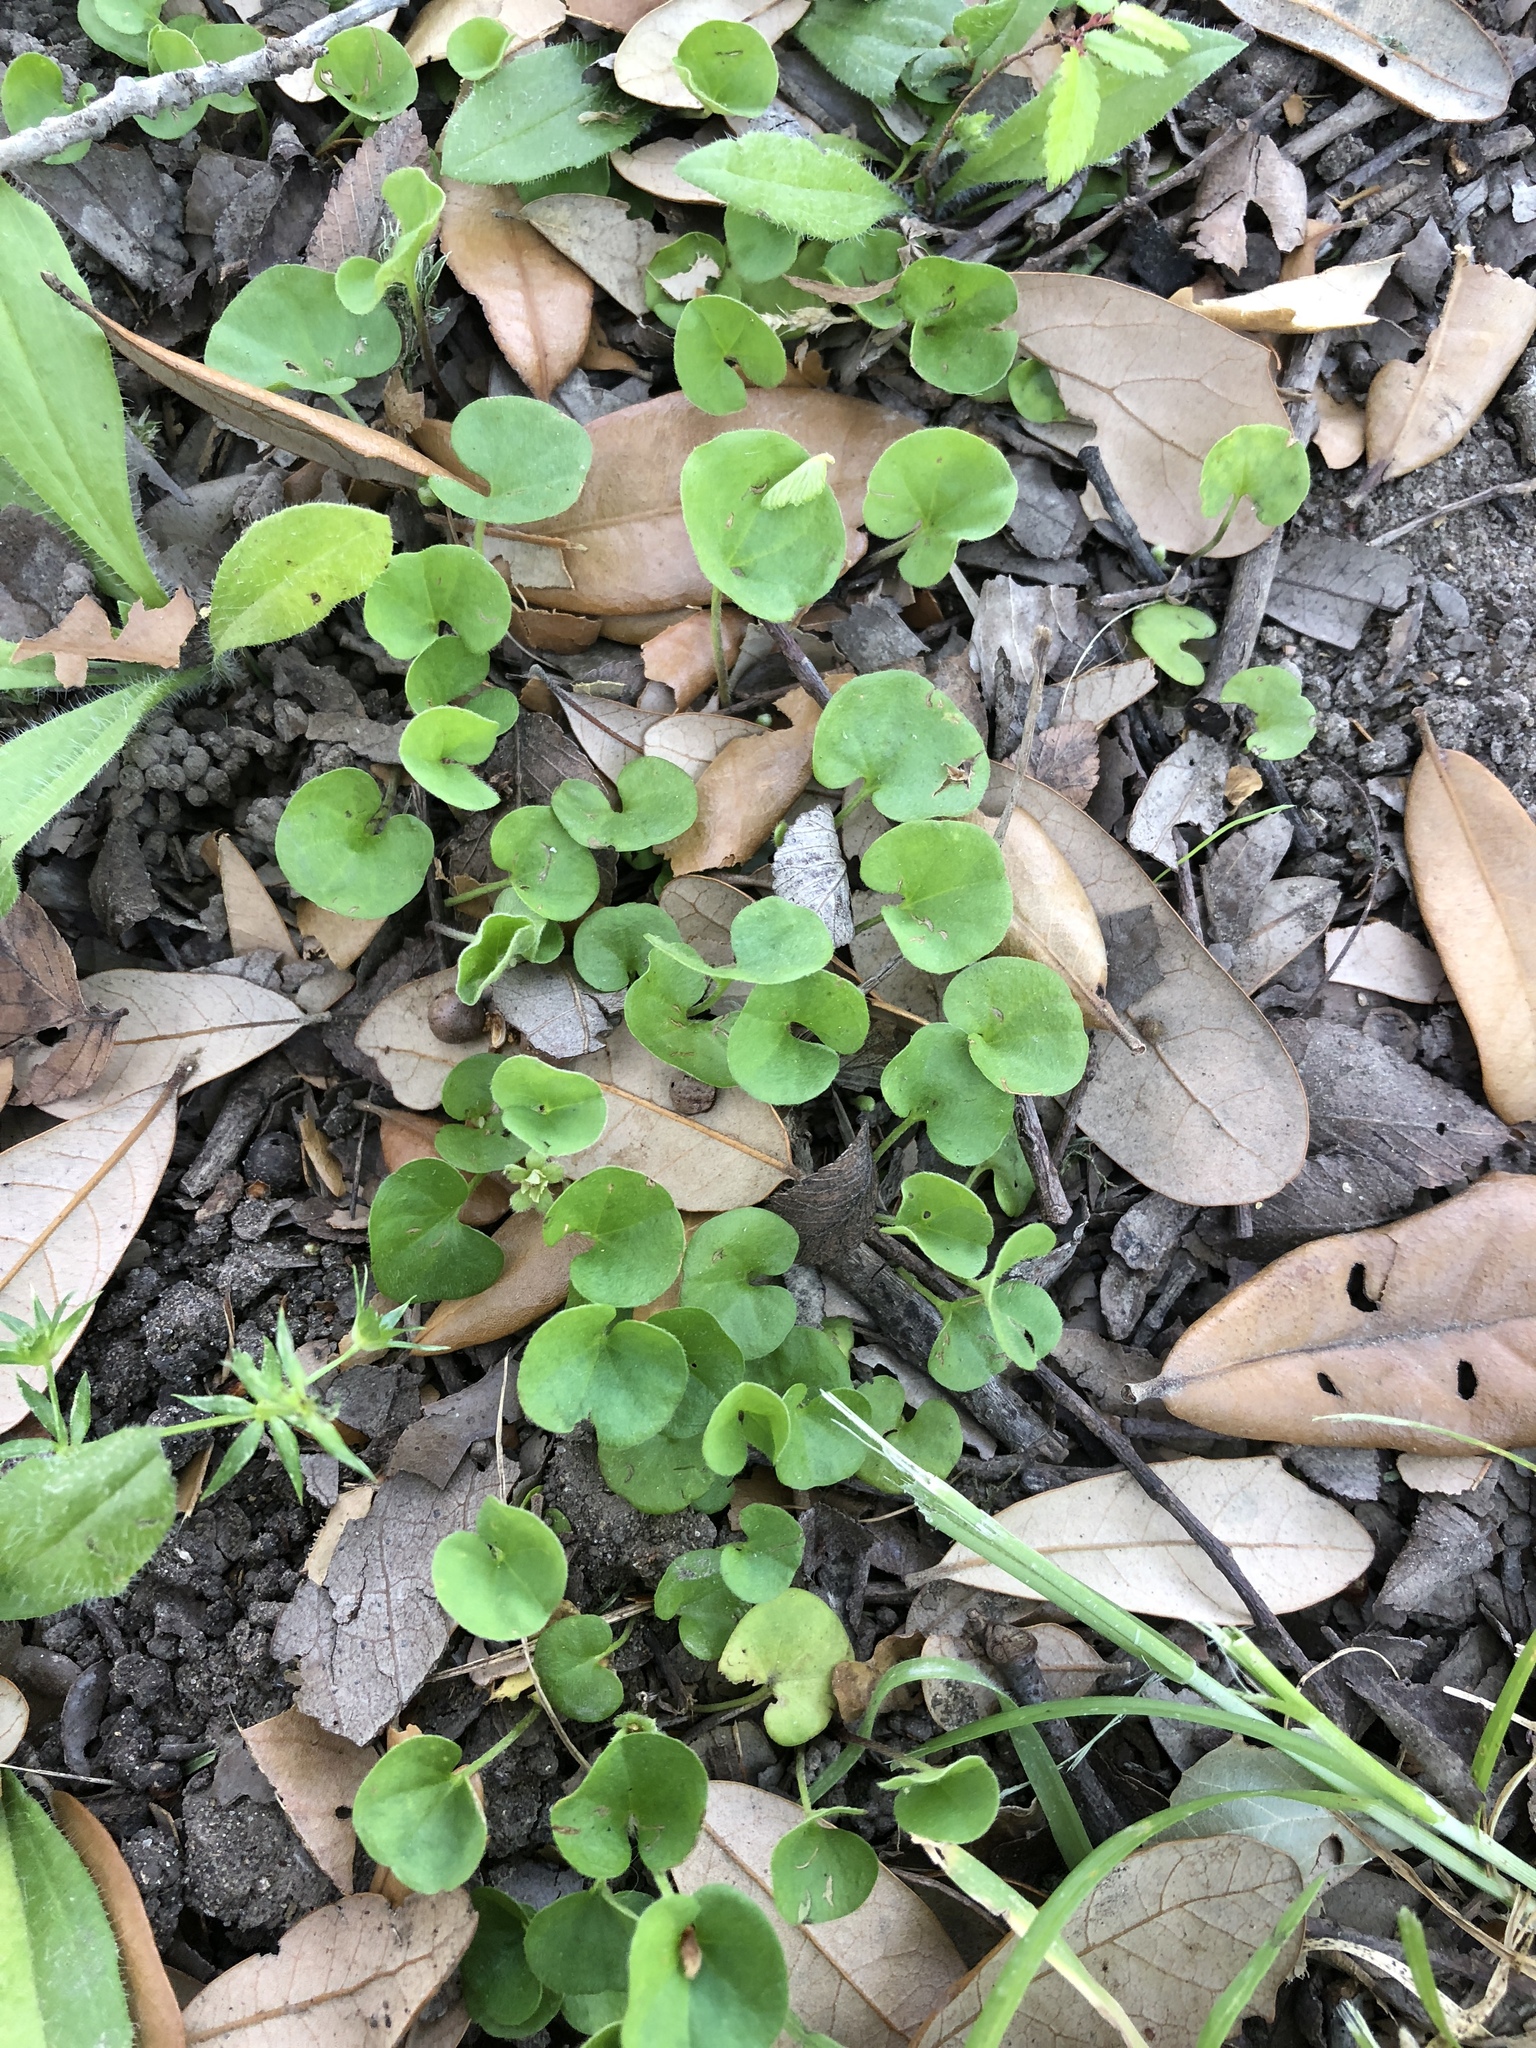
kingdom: Plantae
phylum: Tracheophyta
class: Magnoliopsida
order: Solanales
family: Convolvulaceae
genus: Dichondra
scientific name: Dichondra carolinensis
